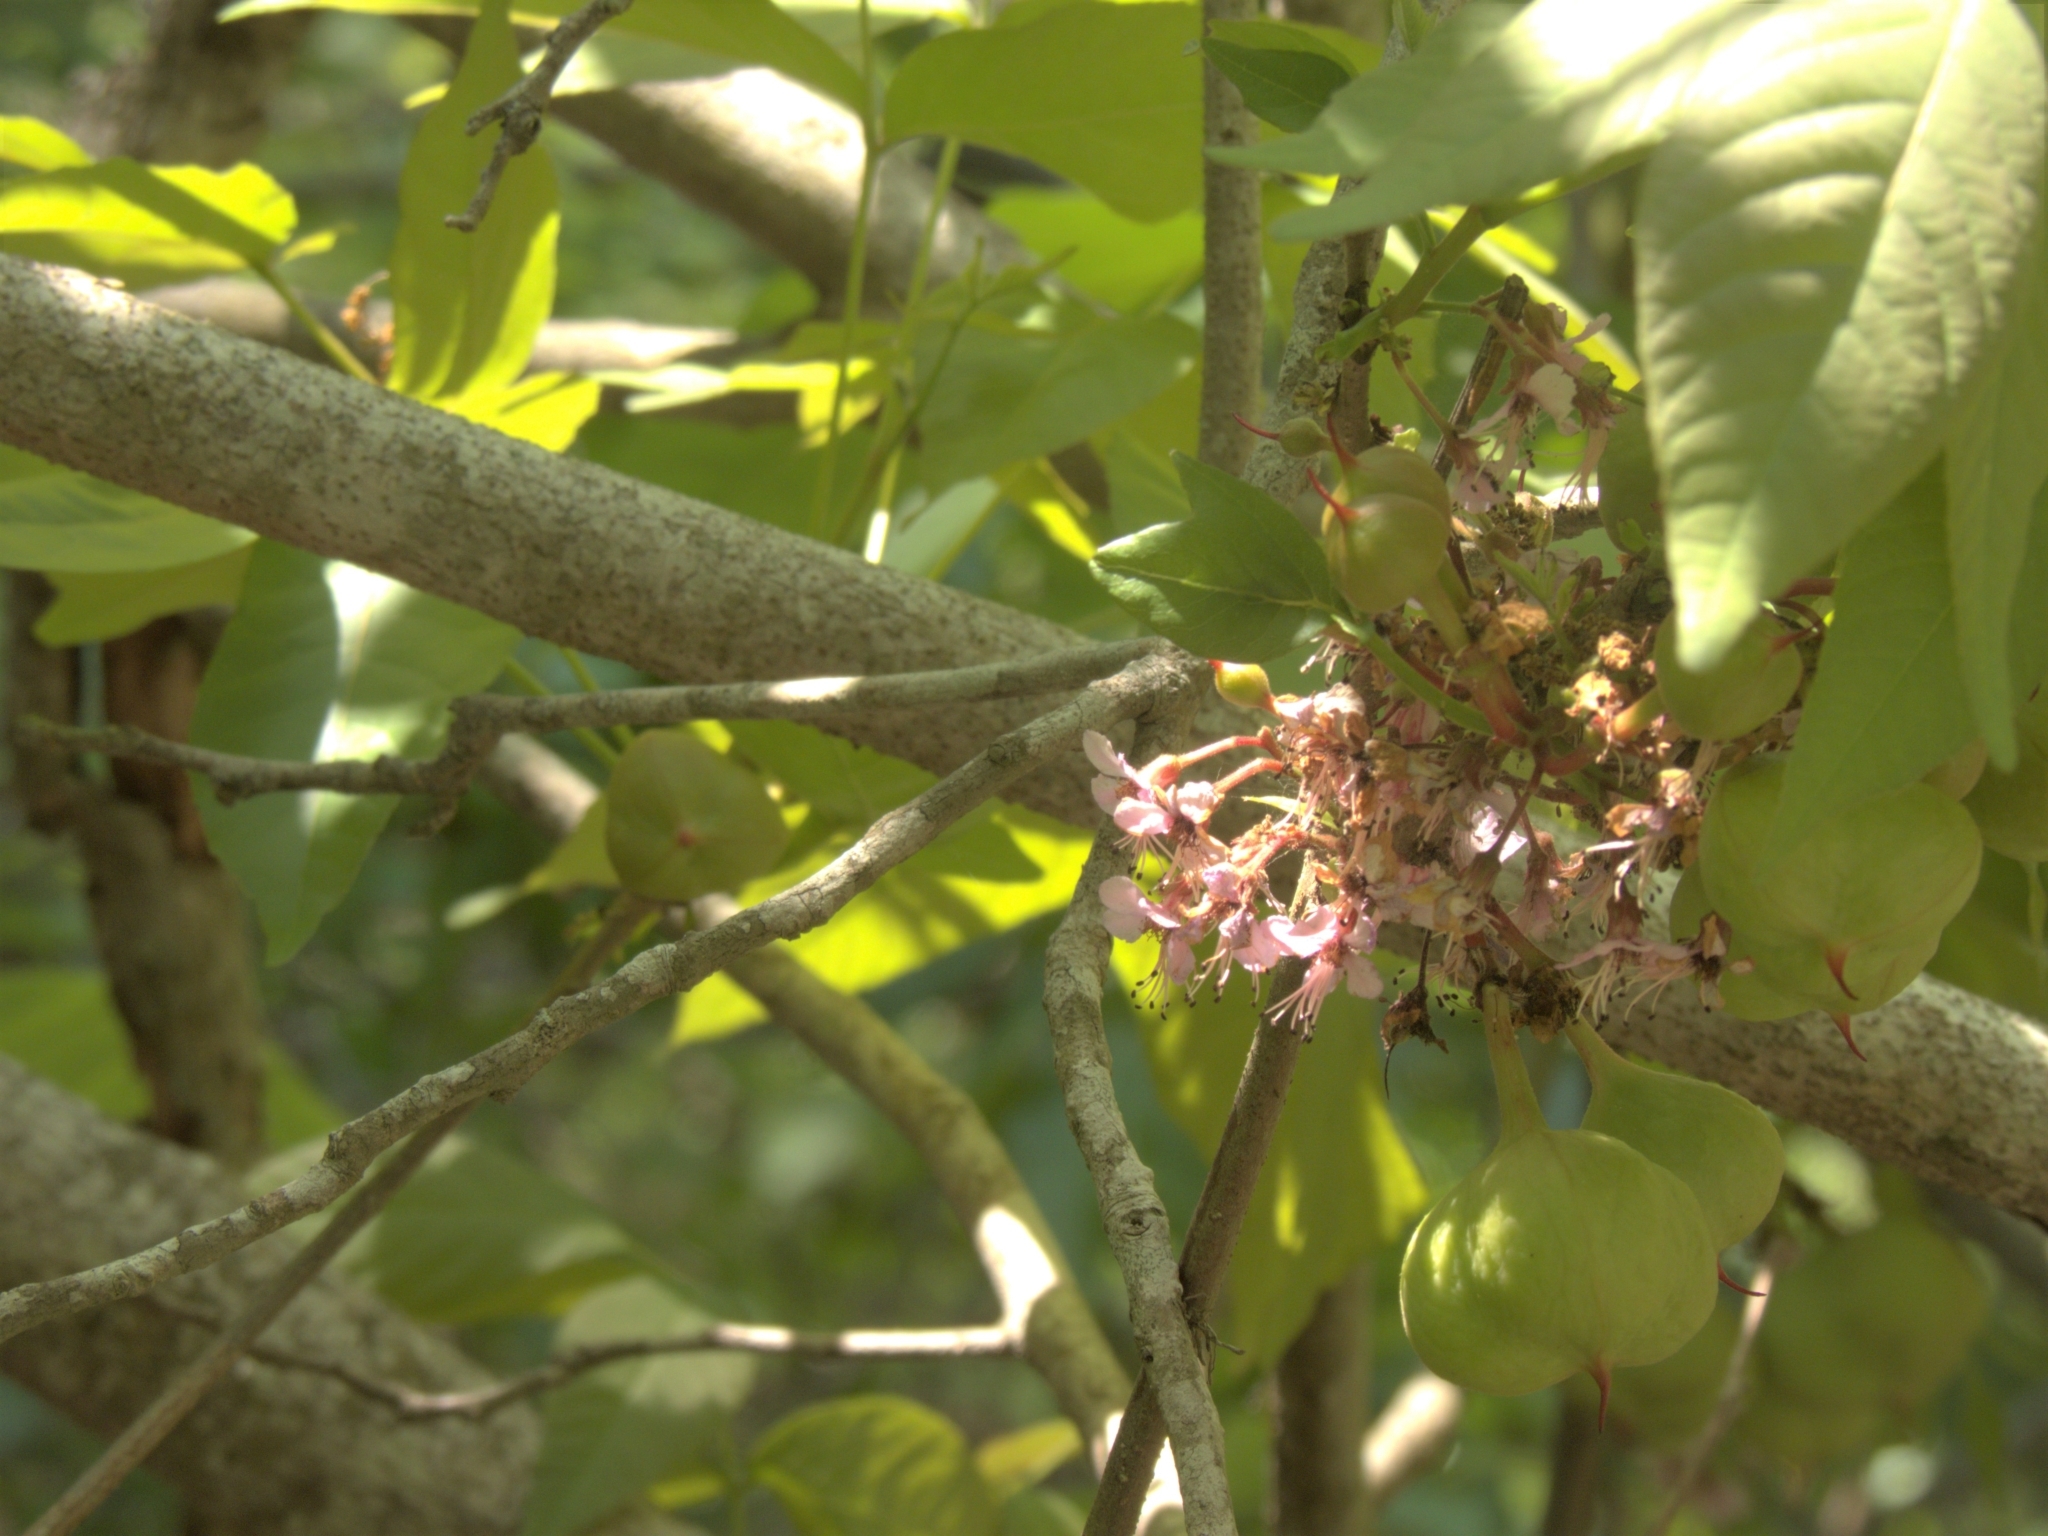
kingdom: Plantae
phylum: Tracheophyta
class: Magnoliopsida
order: Sapindales
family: Sapindaceae
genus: Ungnadia
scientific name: Ungnadia speciosa
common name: Texas-buckeye
